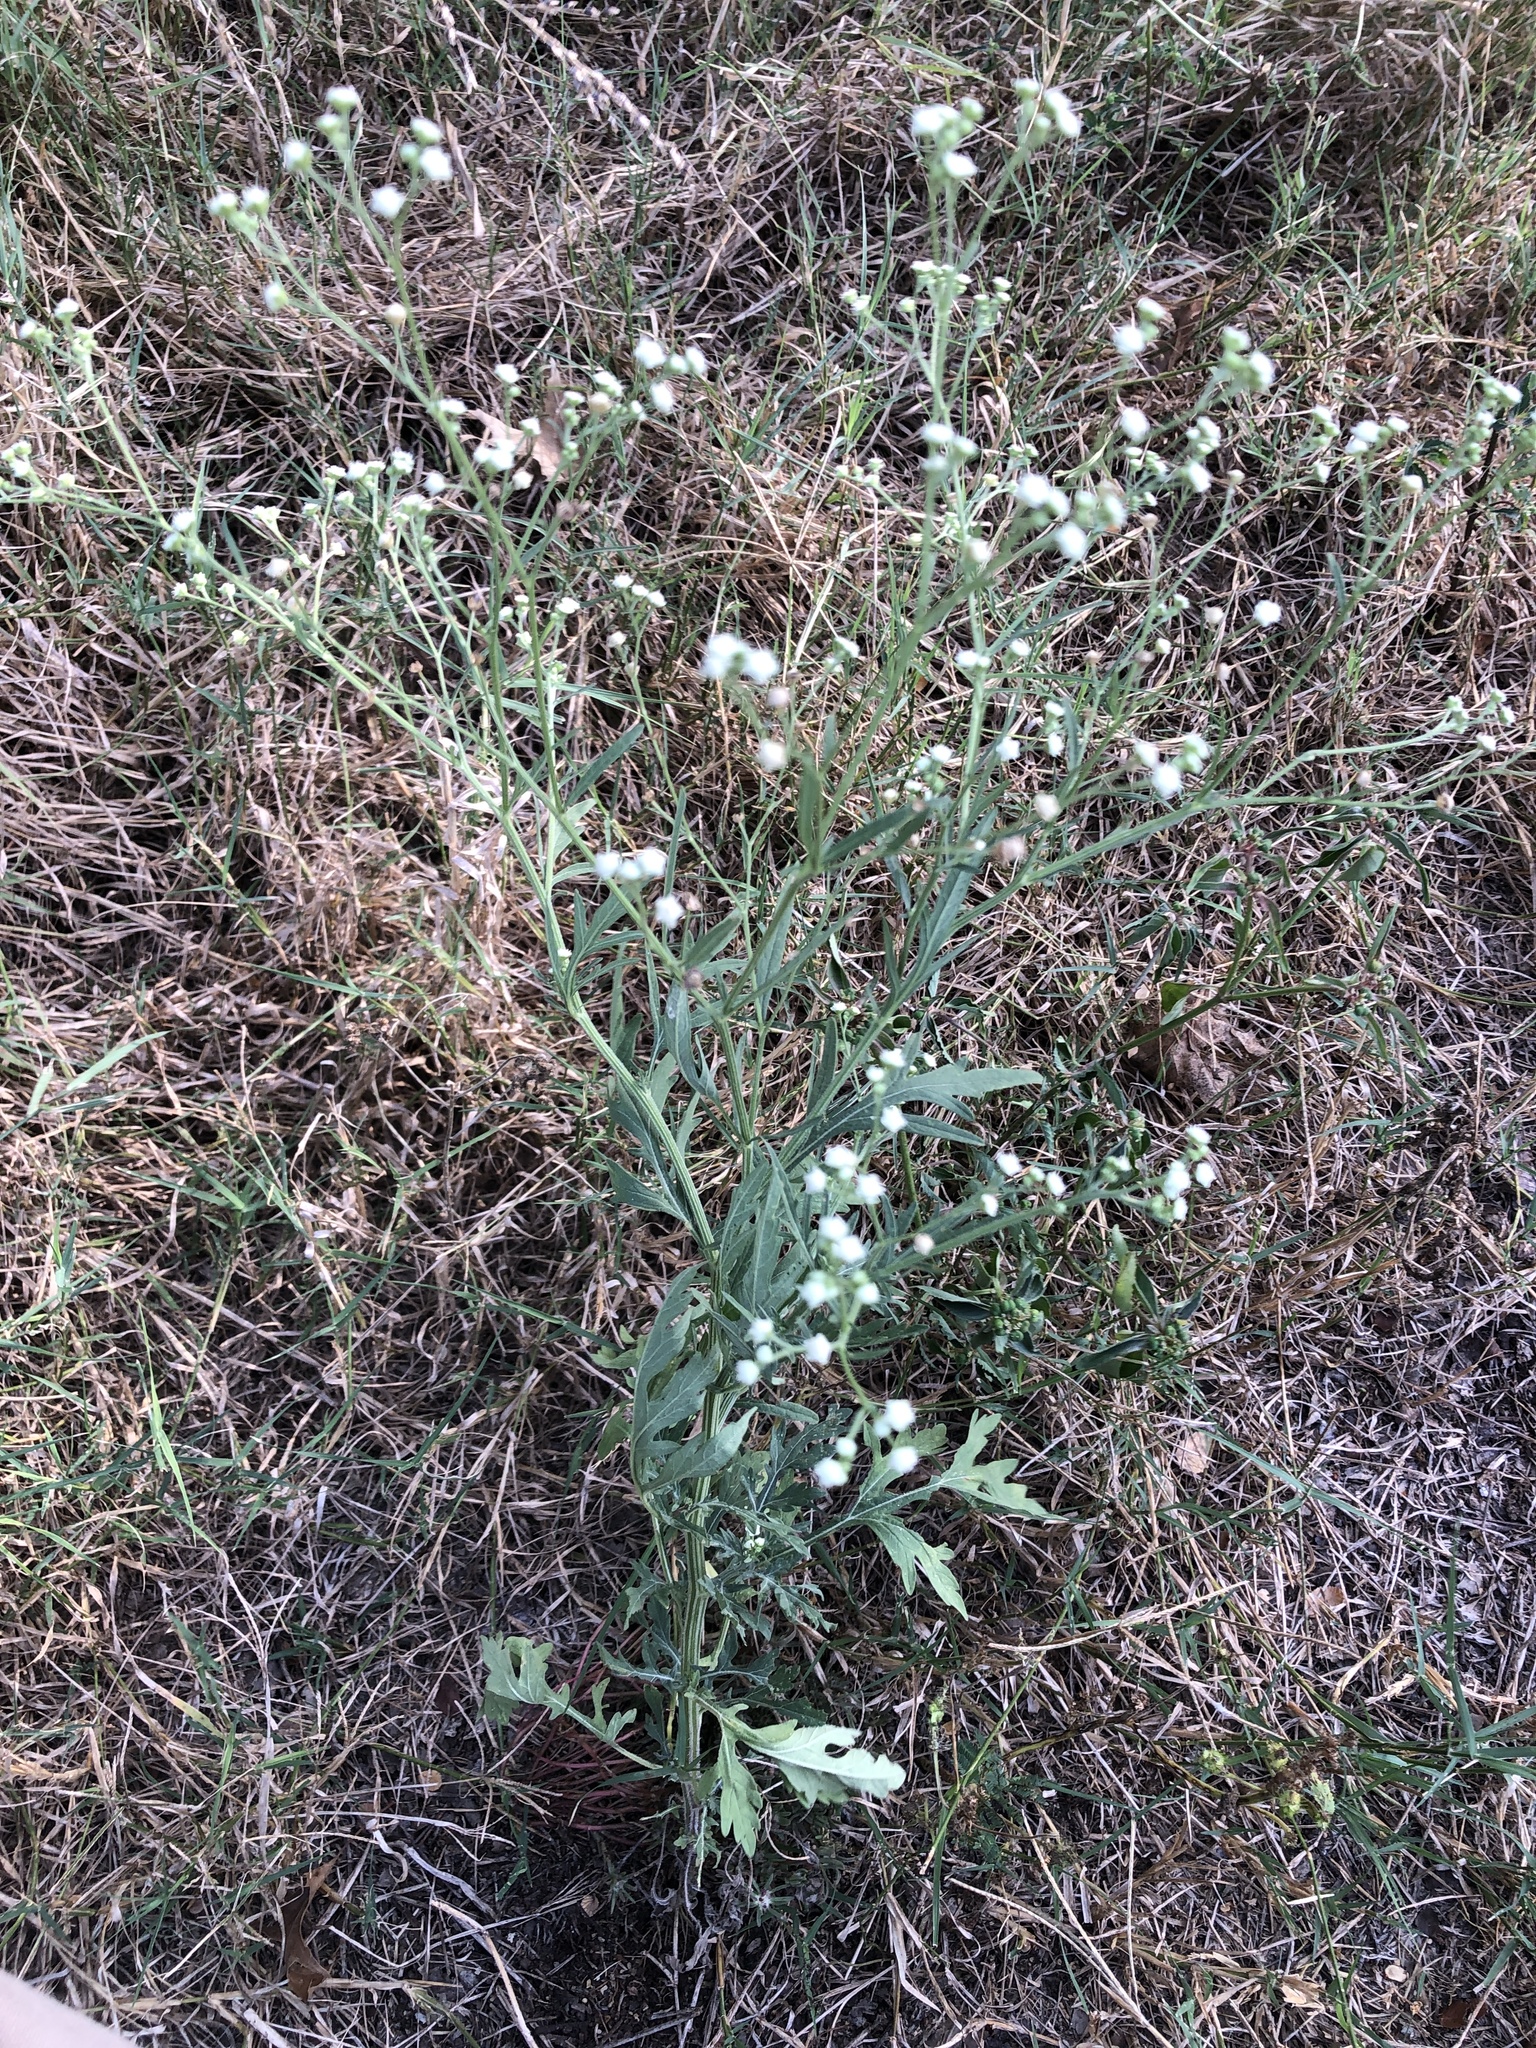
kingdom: Plantae
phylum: Tracheophyta
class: Magnoliopsida
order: Asterales
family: Asteraceae
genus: Parthenium
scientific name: Parthenium hysterophorus
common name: Santa maria feverfew
